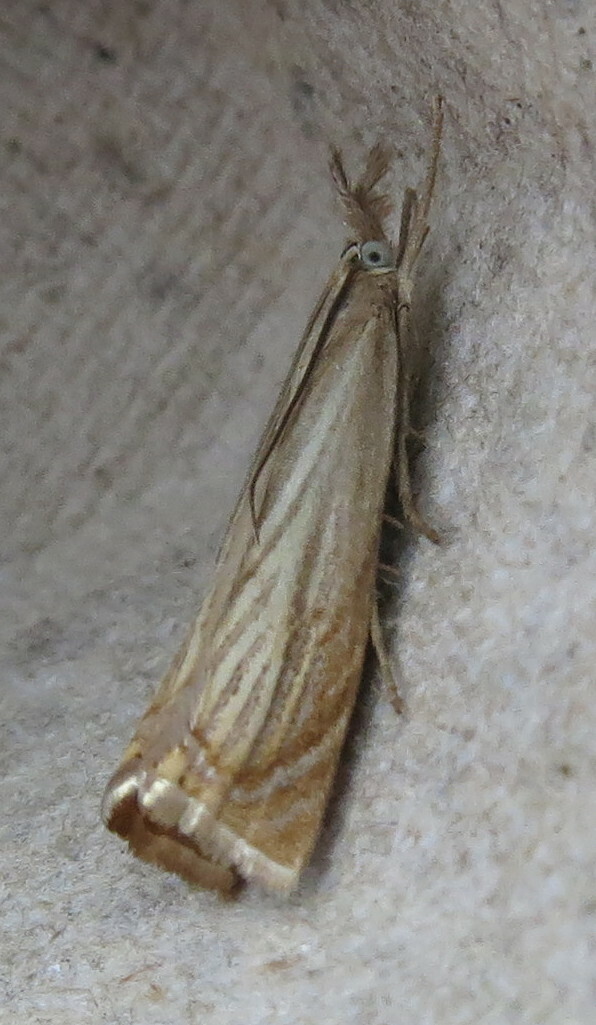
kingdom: Animalia
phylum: Arthropoda
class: Insecta
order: Lepidoptera
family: Crambidae
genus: Chrysoteuchia
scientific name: Chrysoteuchia culmella
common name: Garden grass-veneer
